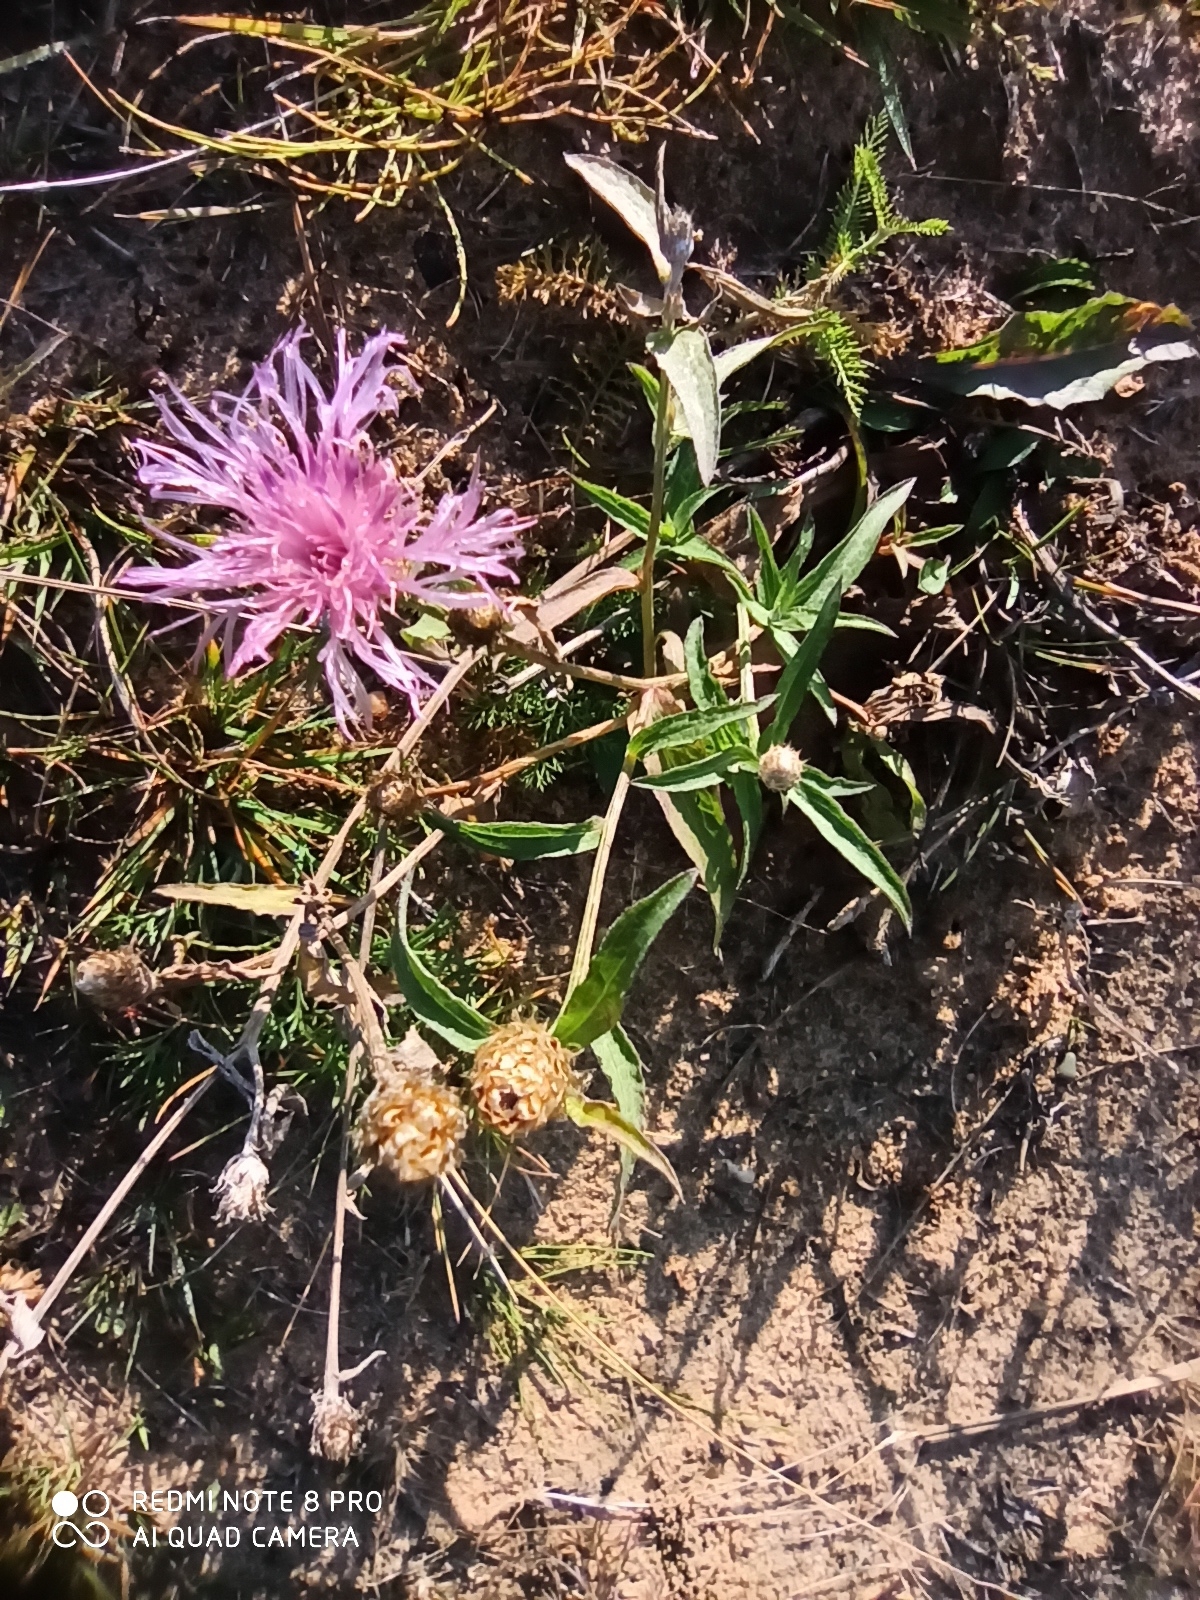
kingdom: Plantae
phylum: Tracheophyta
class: Magnoliopsida
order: Asterales
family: Asteraceae
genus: Centaurea
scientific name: Centaurea jacea
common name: Brown knapweed
